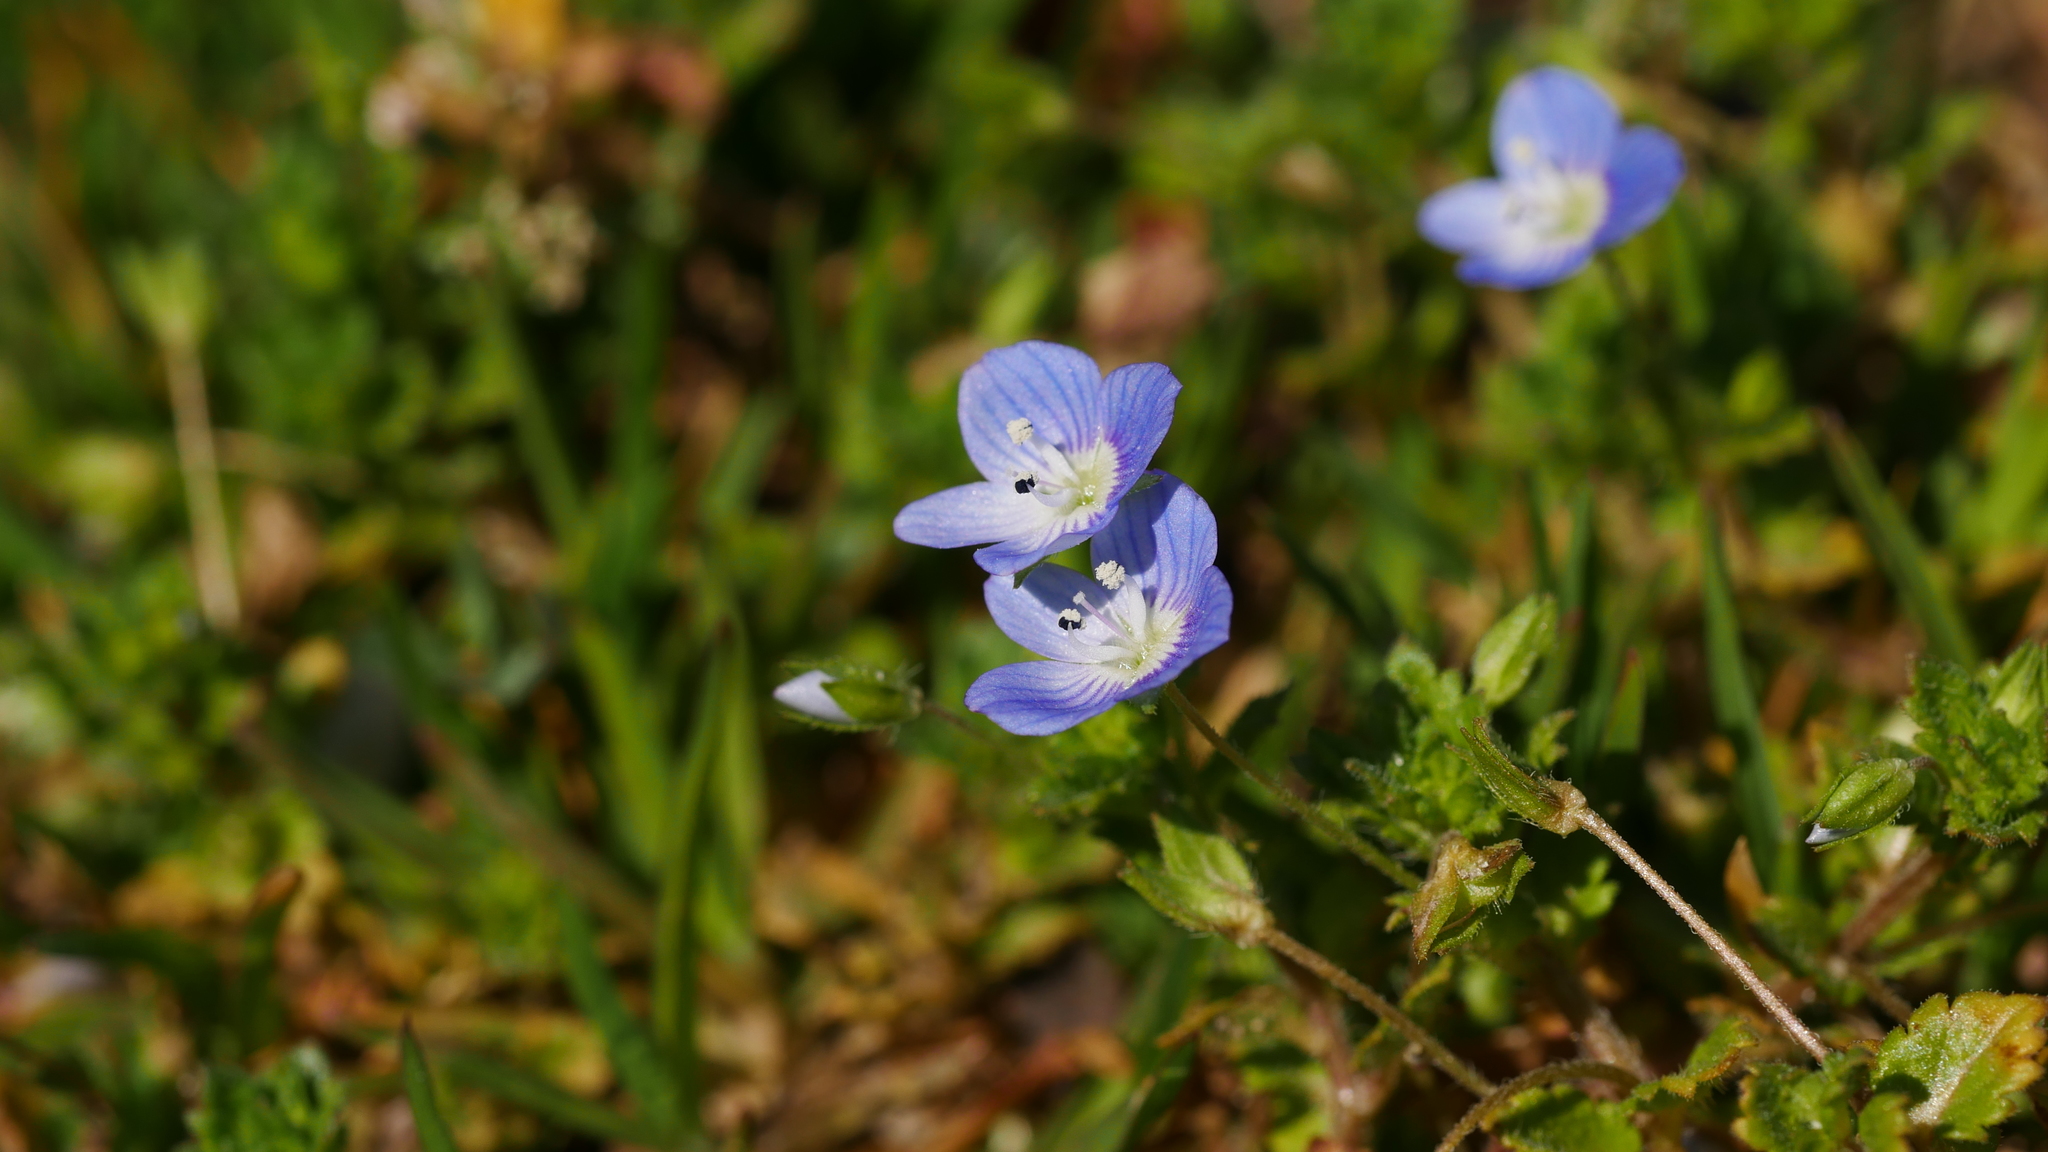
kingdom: Plantae
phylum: Tracheophyta
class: Magnoliopsida
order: Lamiales
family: Plantaginaceae
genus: Veronica
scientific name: Veronica persica
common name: Common field-speedwell
